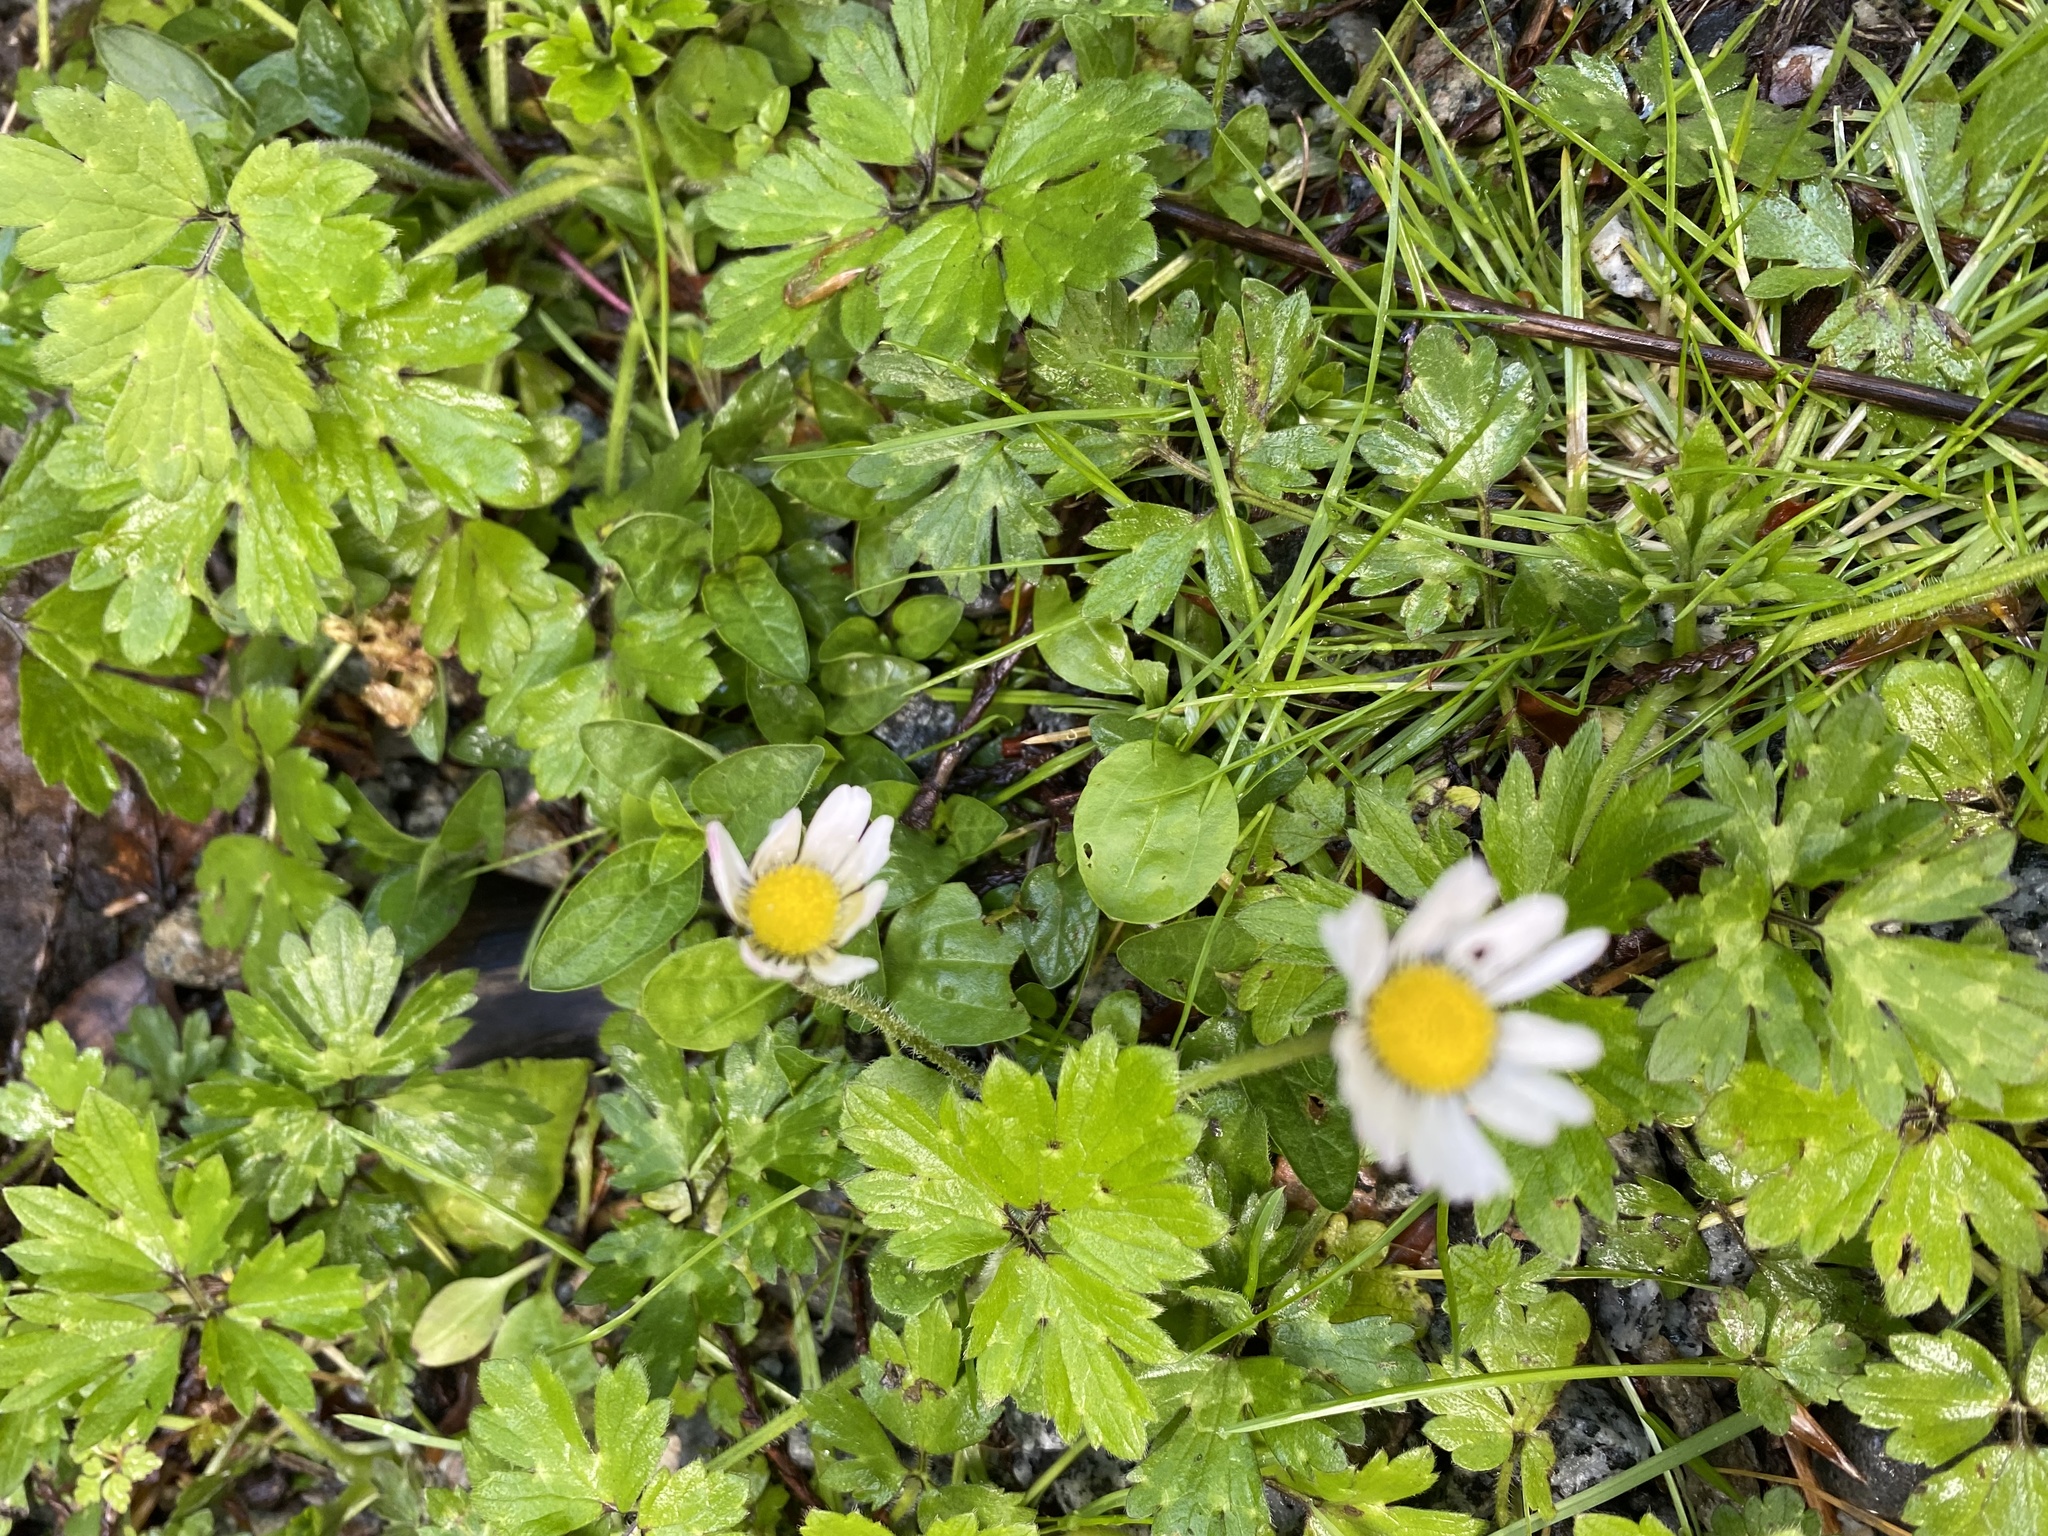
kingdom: Plantae
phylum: Tracheophyta
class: Magnoliopsida
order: Asterales
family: Asteraceae
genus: Bellis
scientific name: Bellis perennis
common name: Lawndaisy
